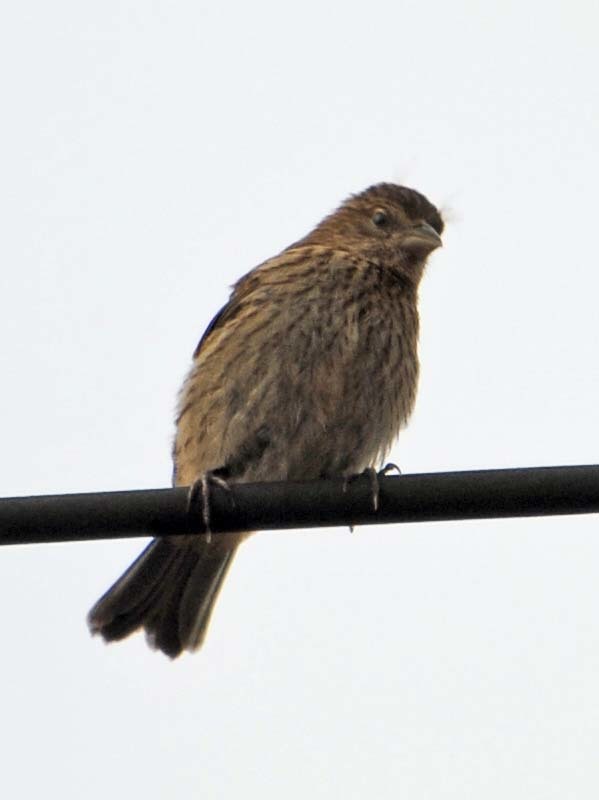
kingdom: Animalia
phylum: Chordata
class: Aves
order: Passeriformes
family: Fringillidae
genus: Haemorhous
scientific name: Haemorhous mexicanus
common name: House finch
